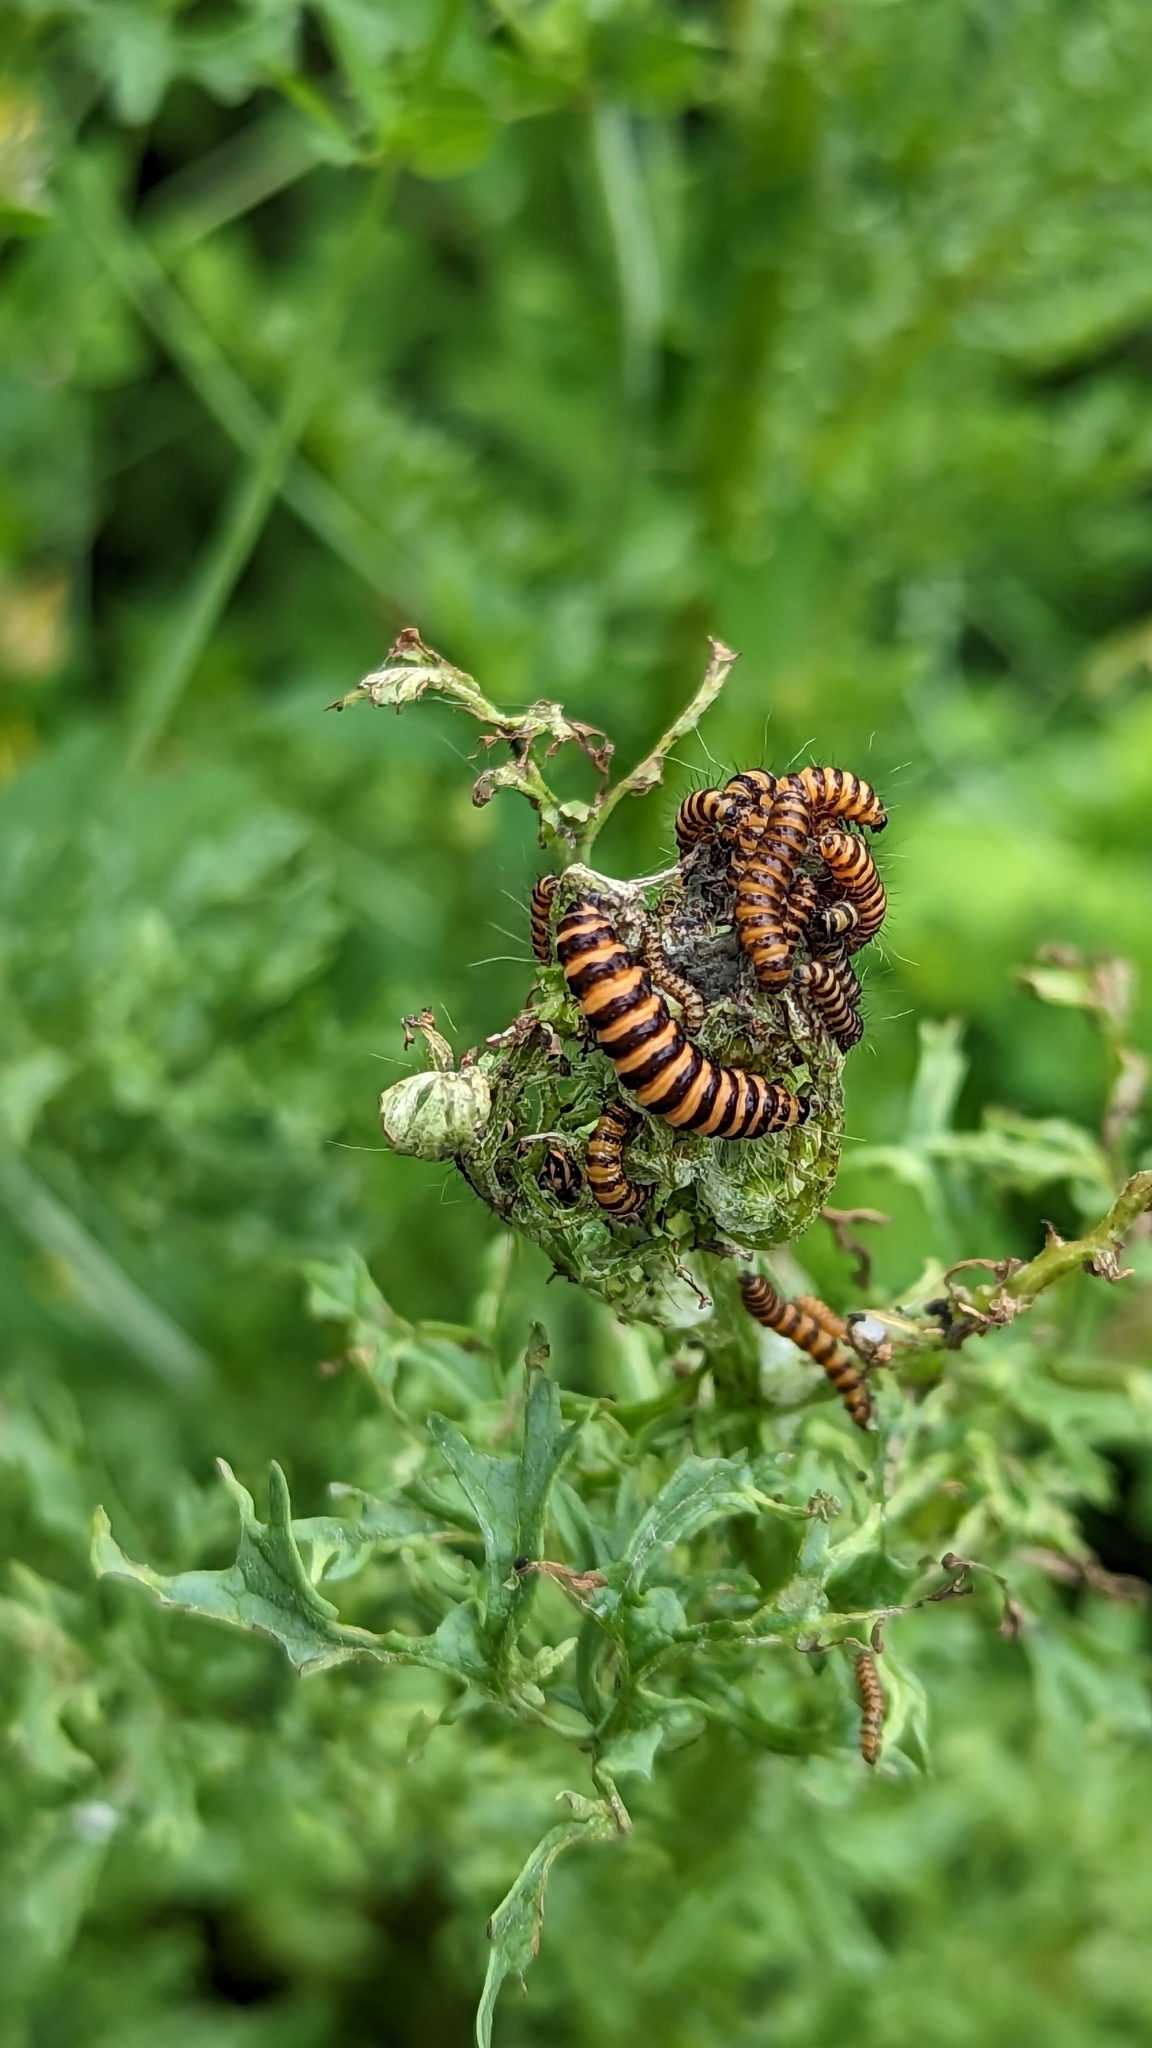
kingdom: Animalia
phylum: Arthropoda
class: Insecta
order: Lepidoptera
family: Erebidae
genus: Tyria
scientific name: Tyria jacobaeae
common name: Cinnabar
